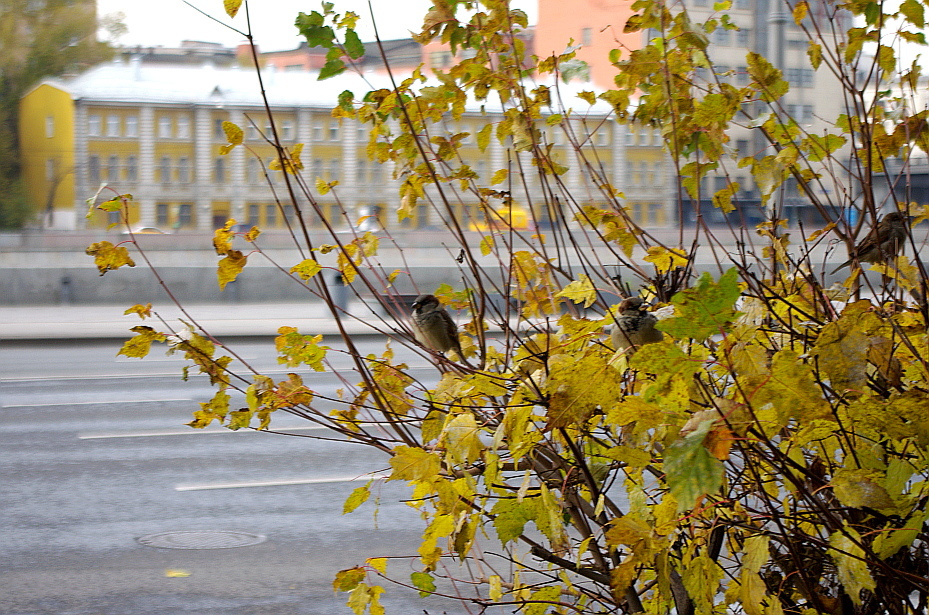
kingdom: Animalia
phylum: Chordata
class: Aves
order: Passeriformes
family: Passeridae
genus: Passer
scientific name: Passer domesticus
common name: House sparrow
